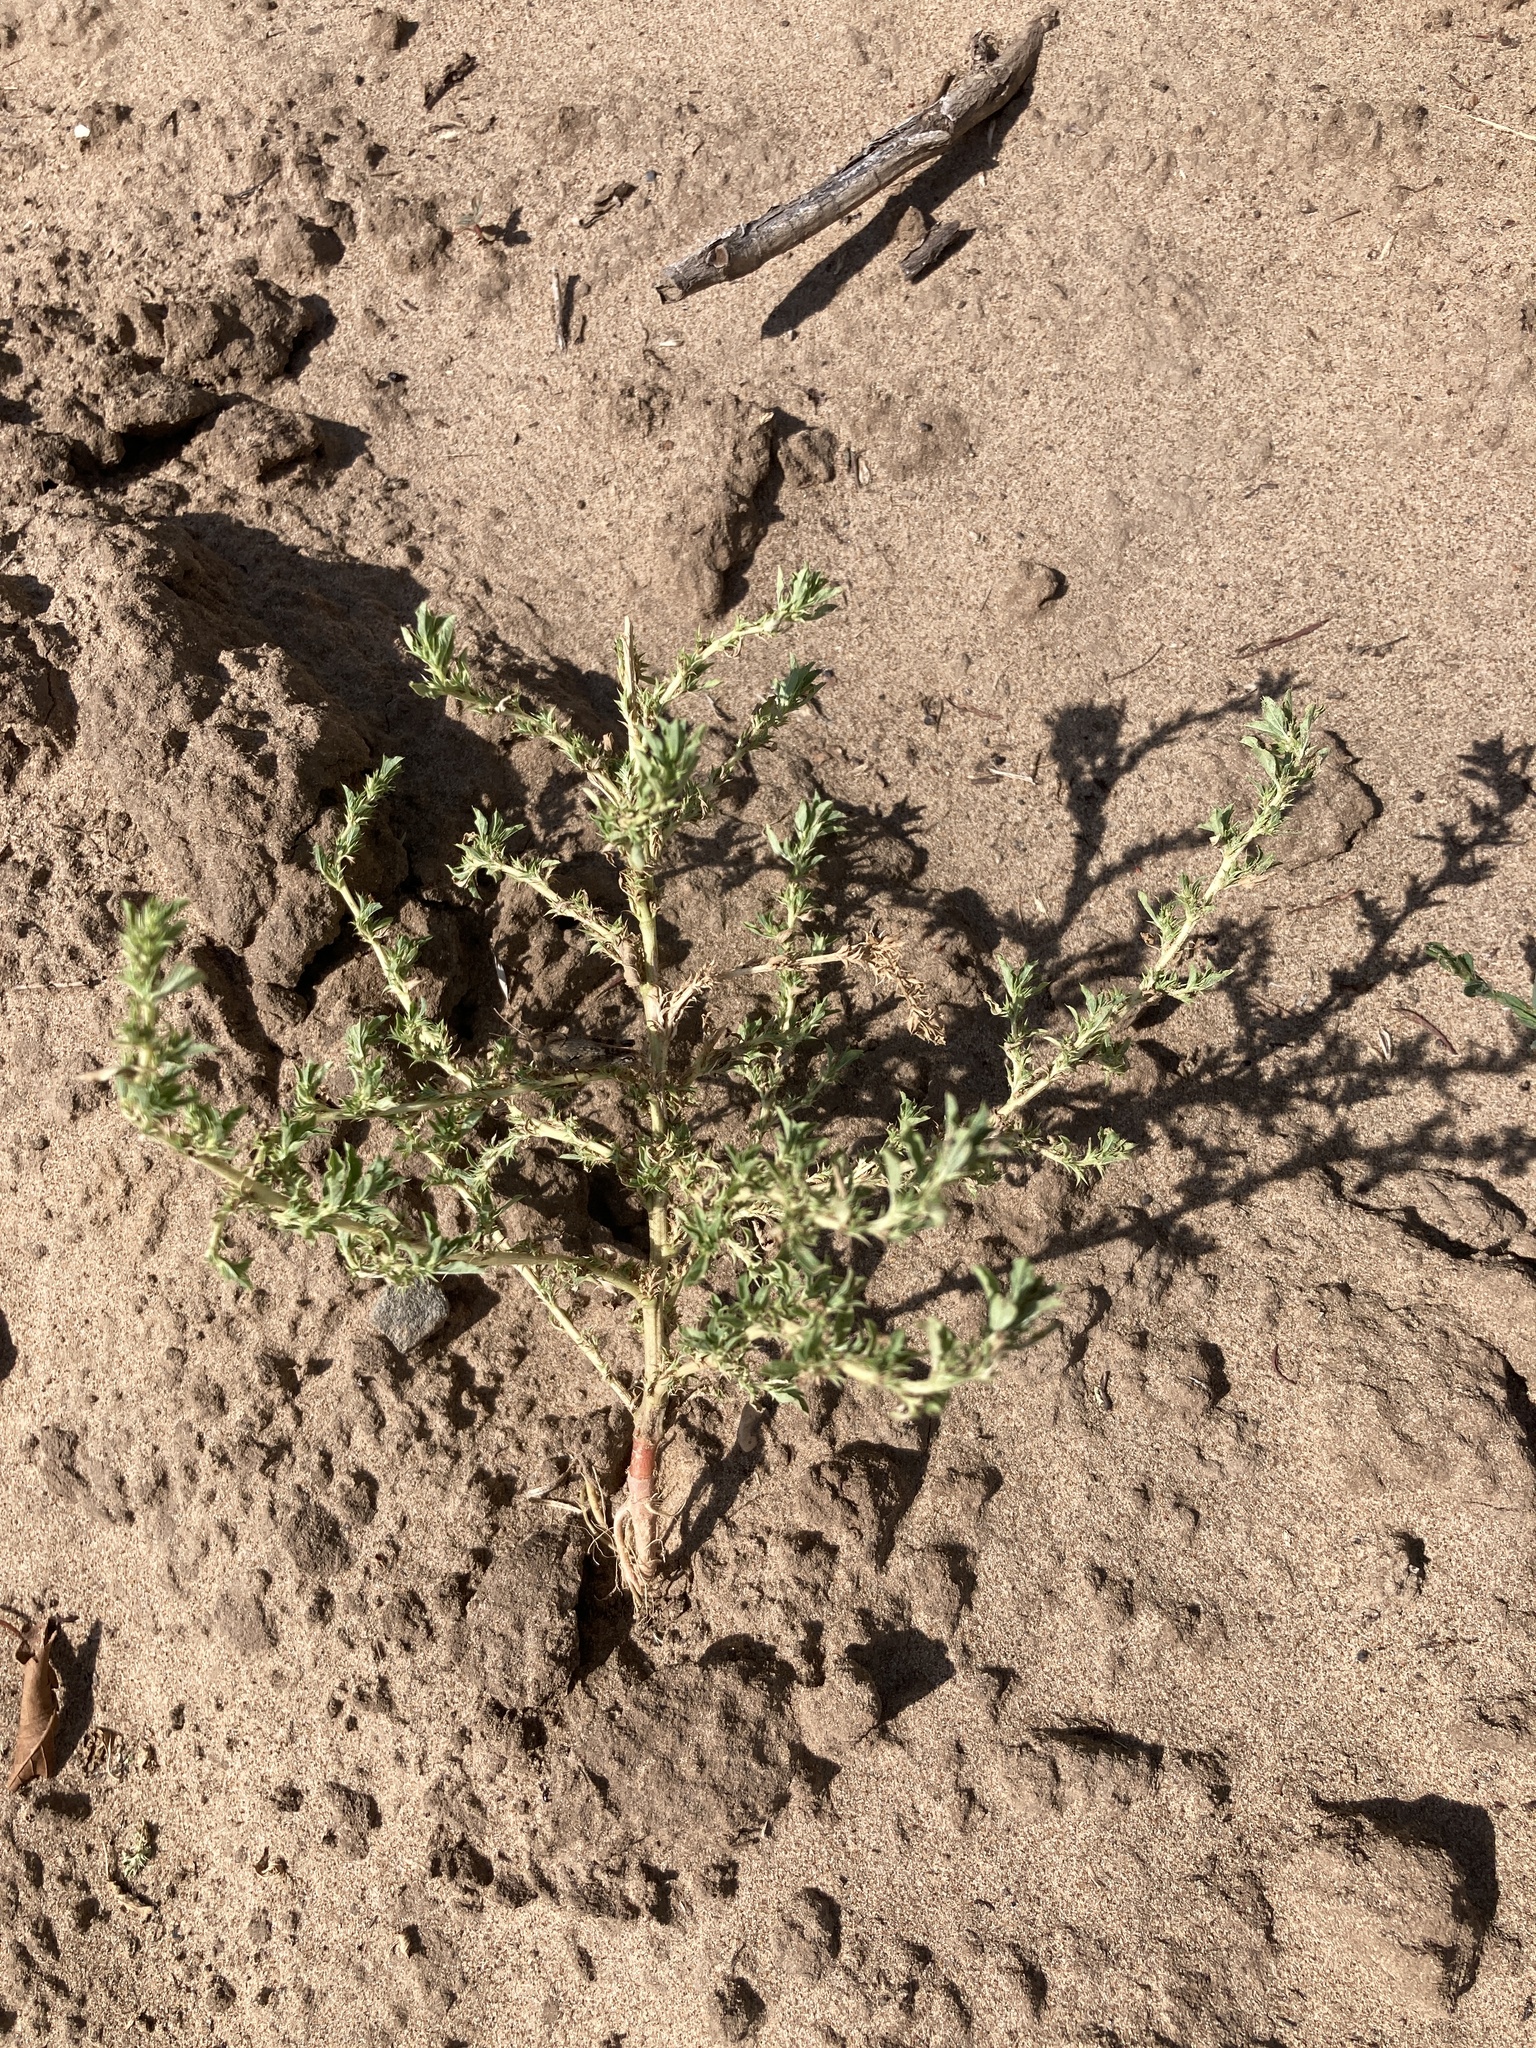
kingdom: Plantae
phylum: Tracheophyta
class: Magnoliopsida
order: Caryophyllales
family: Amaranthaceae
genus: Amaranthus
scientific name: Amaranthus albus
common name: White pigweed
